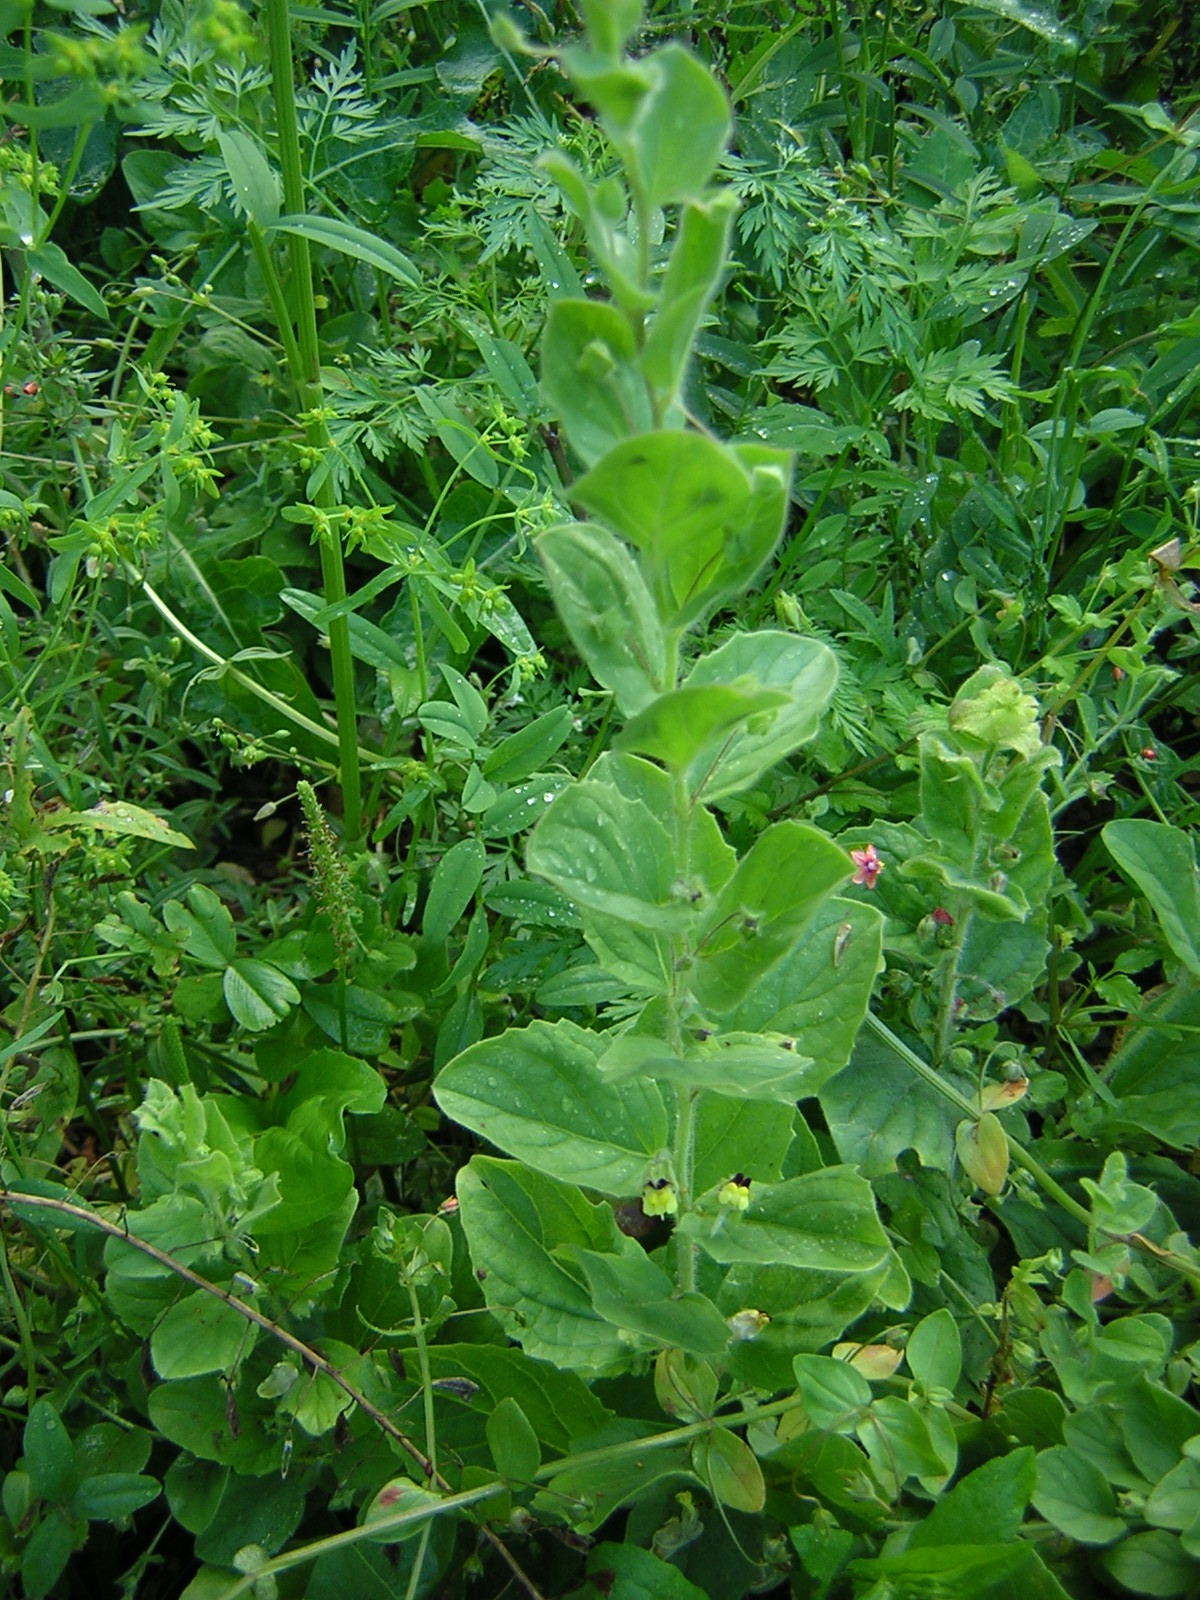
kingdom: Plantae
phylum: Tracheophyta
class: Magnoliopsida
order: Lamiales
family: Plantaginaceae
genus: Kickxia
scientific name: Kickxia spuria
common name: Round-leaved fluellen
